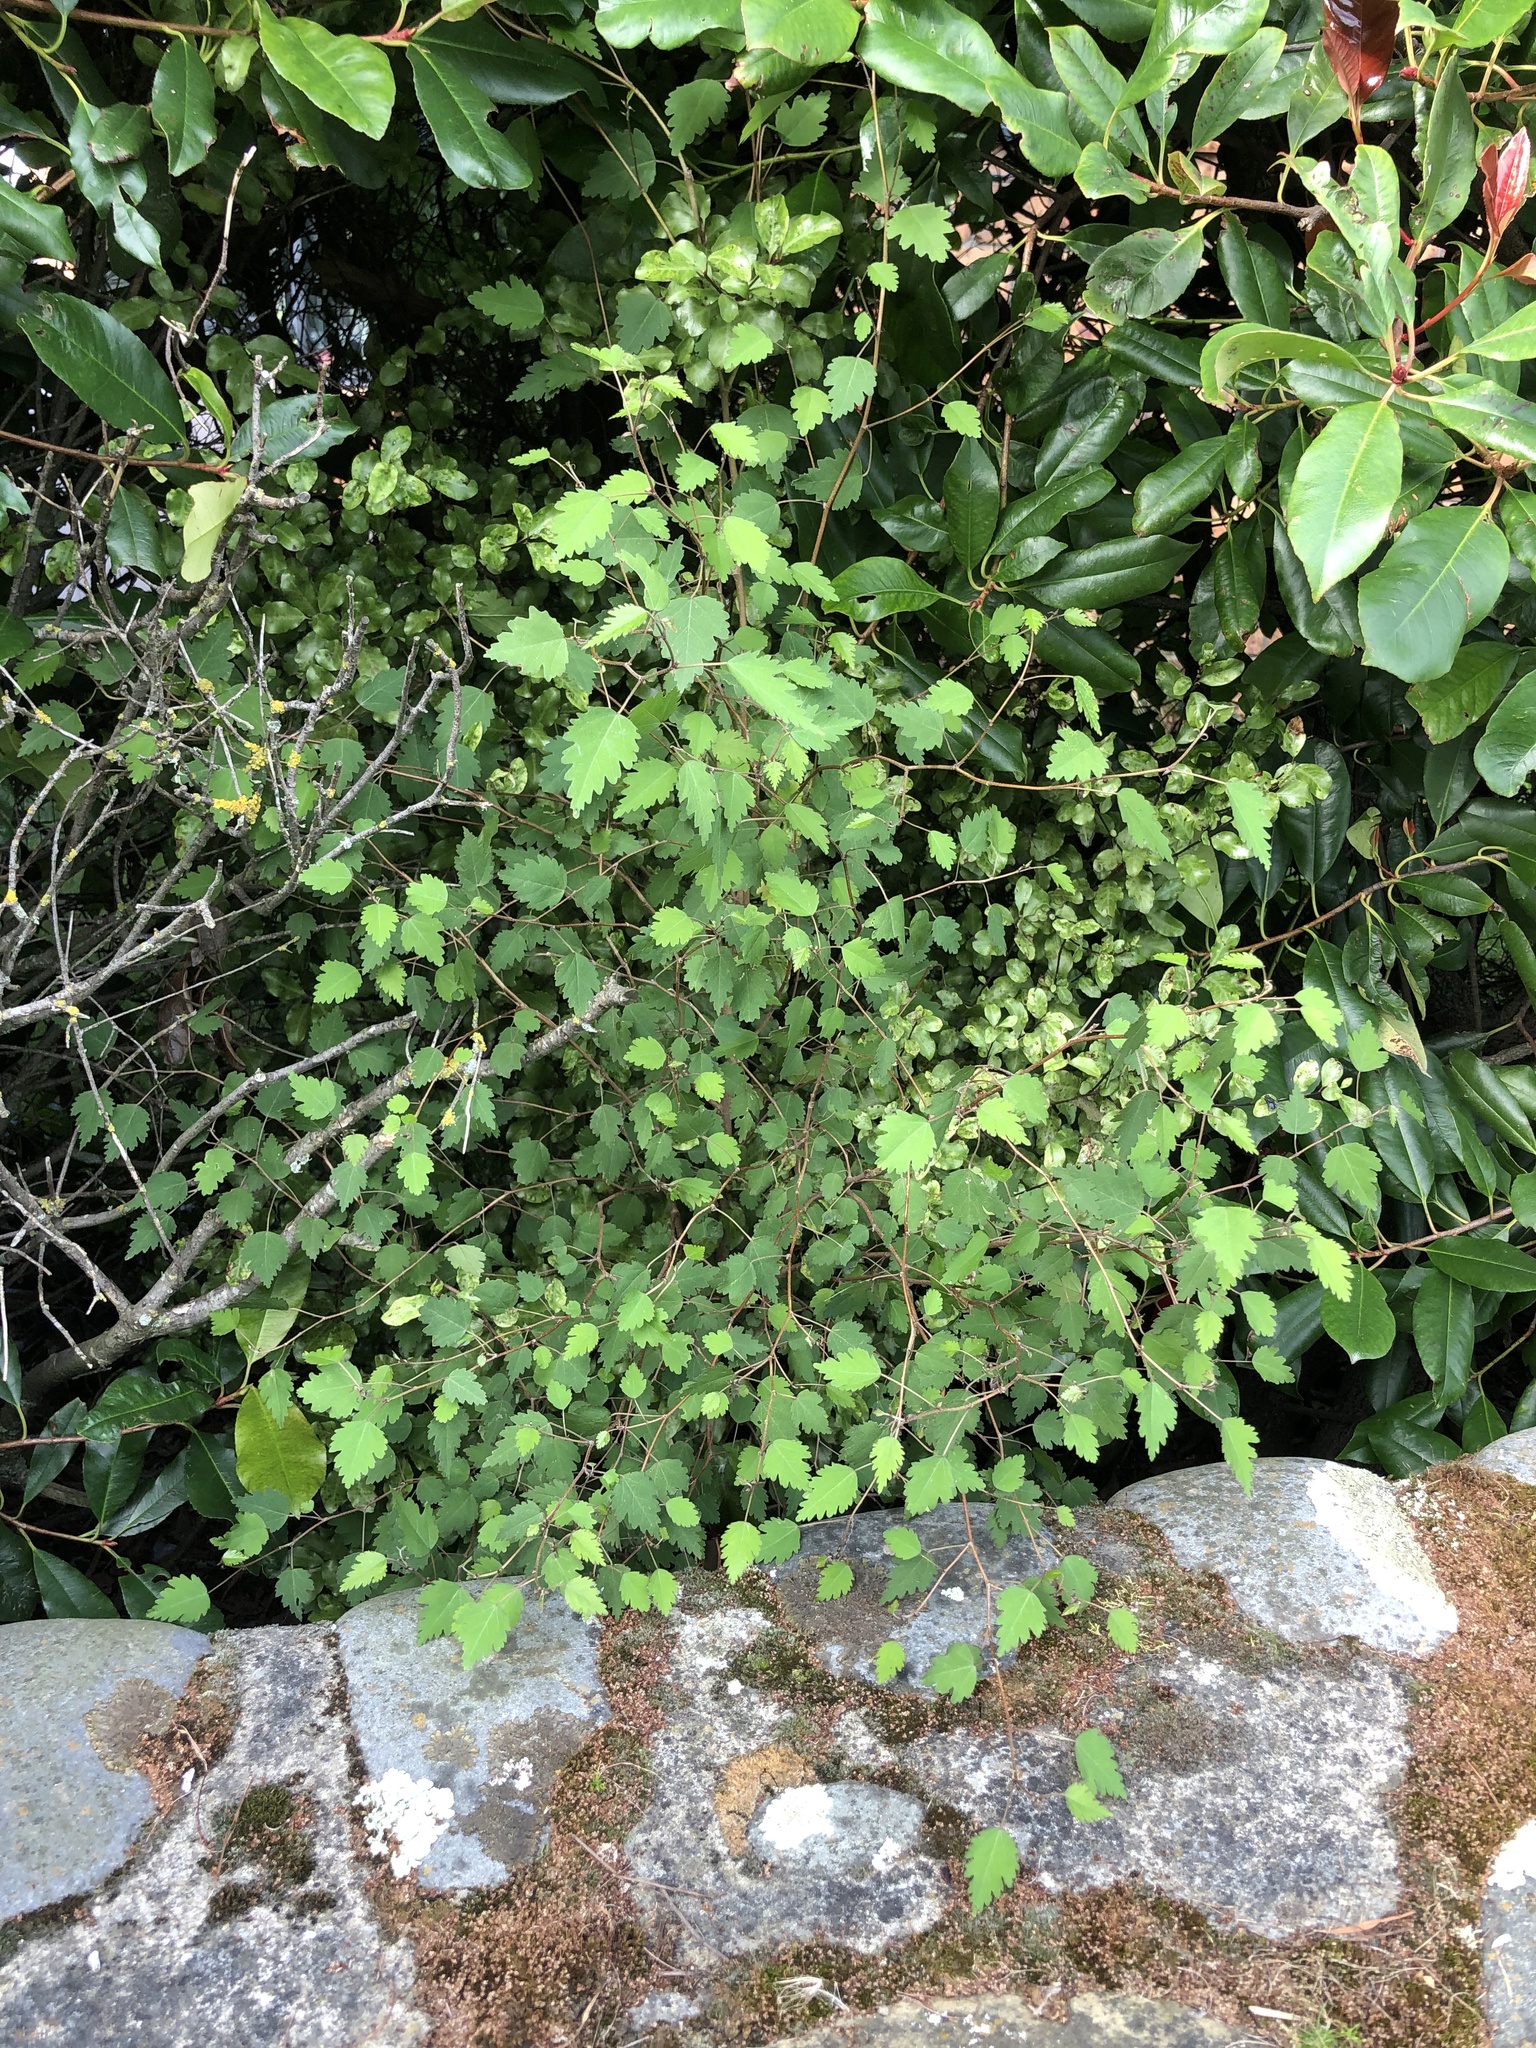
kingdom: Plantae
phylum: Tracheophyta
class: Magnoliopsida
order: Malvales
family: Malvaceae
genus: Plagianthus
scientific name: Plagianthus regius
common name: Manatu
